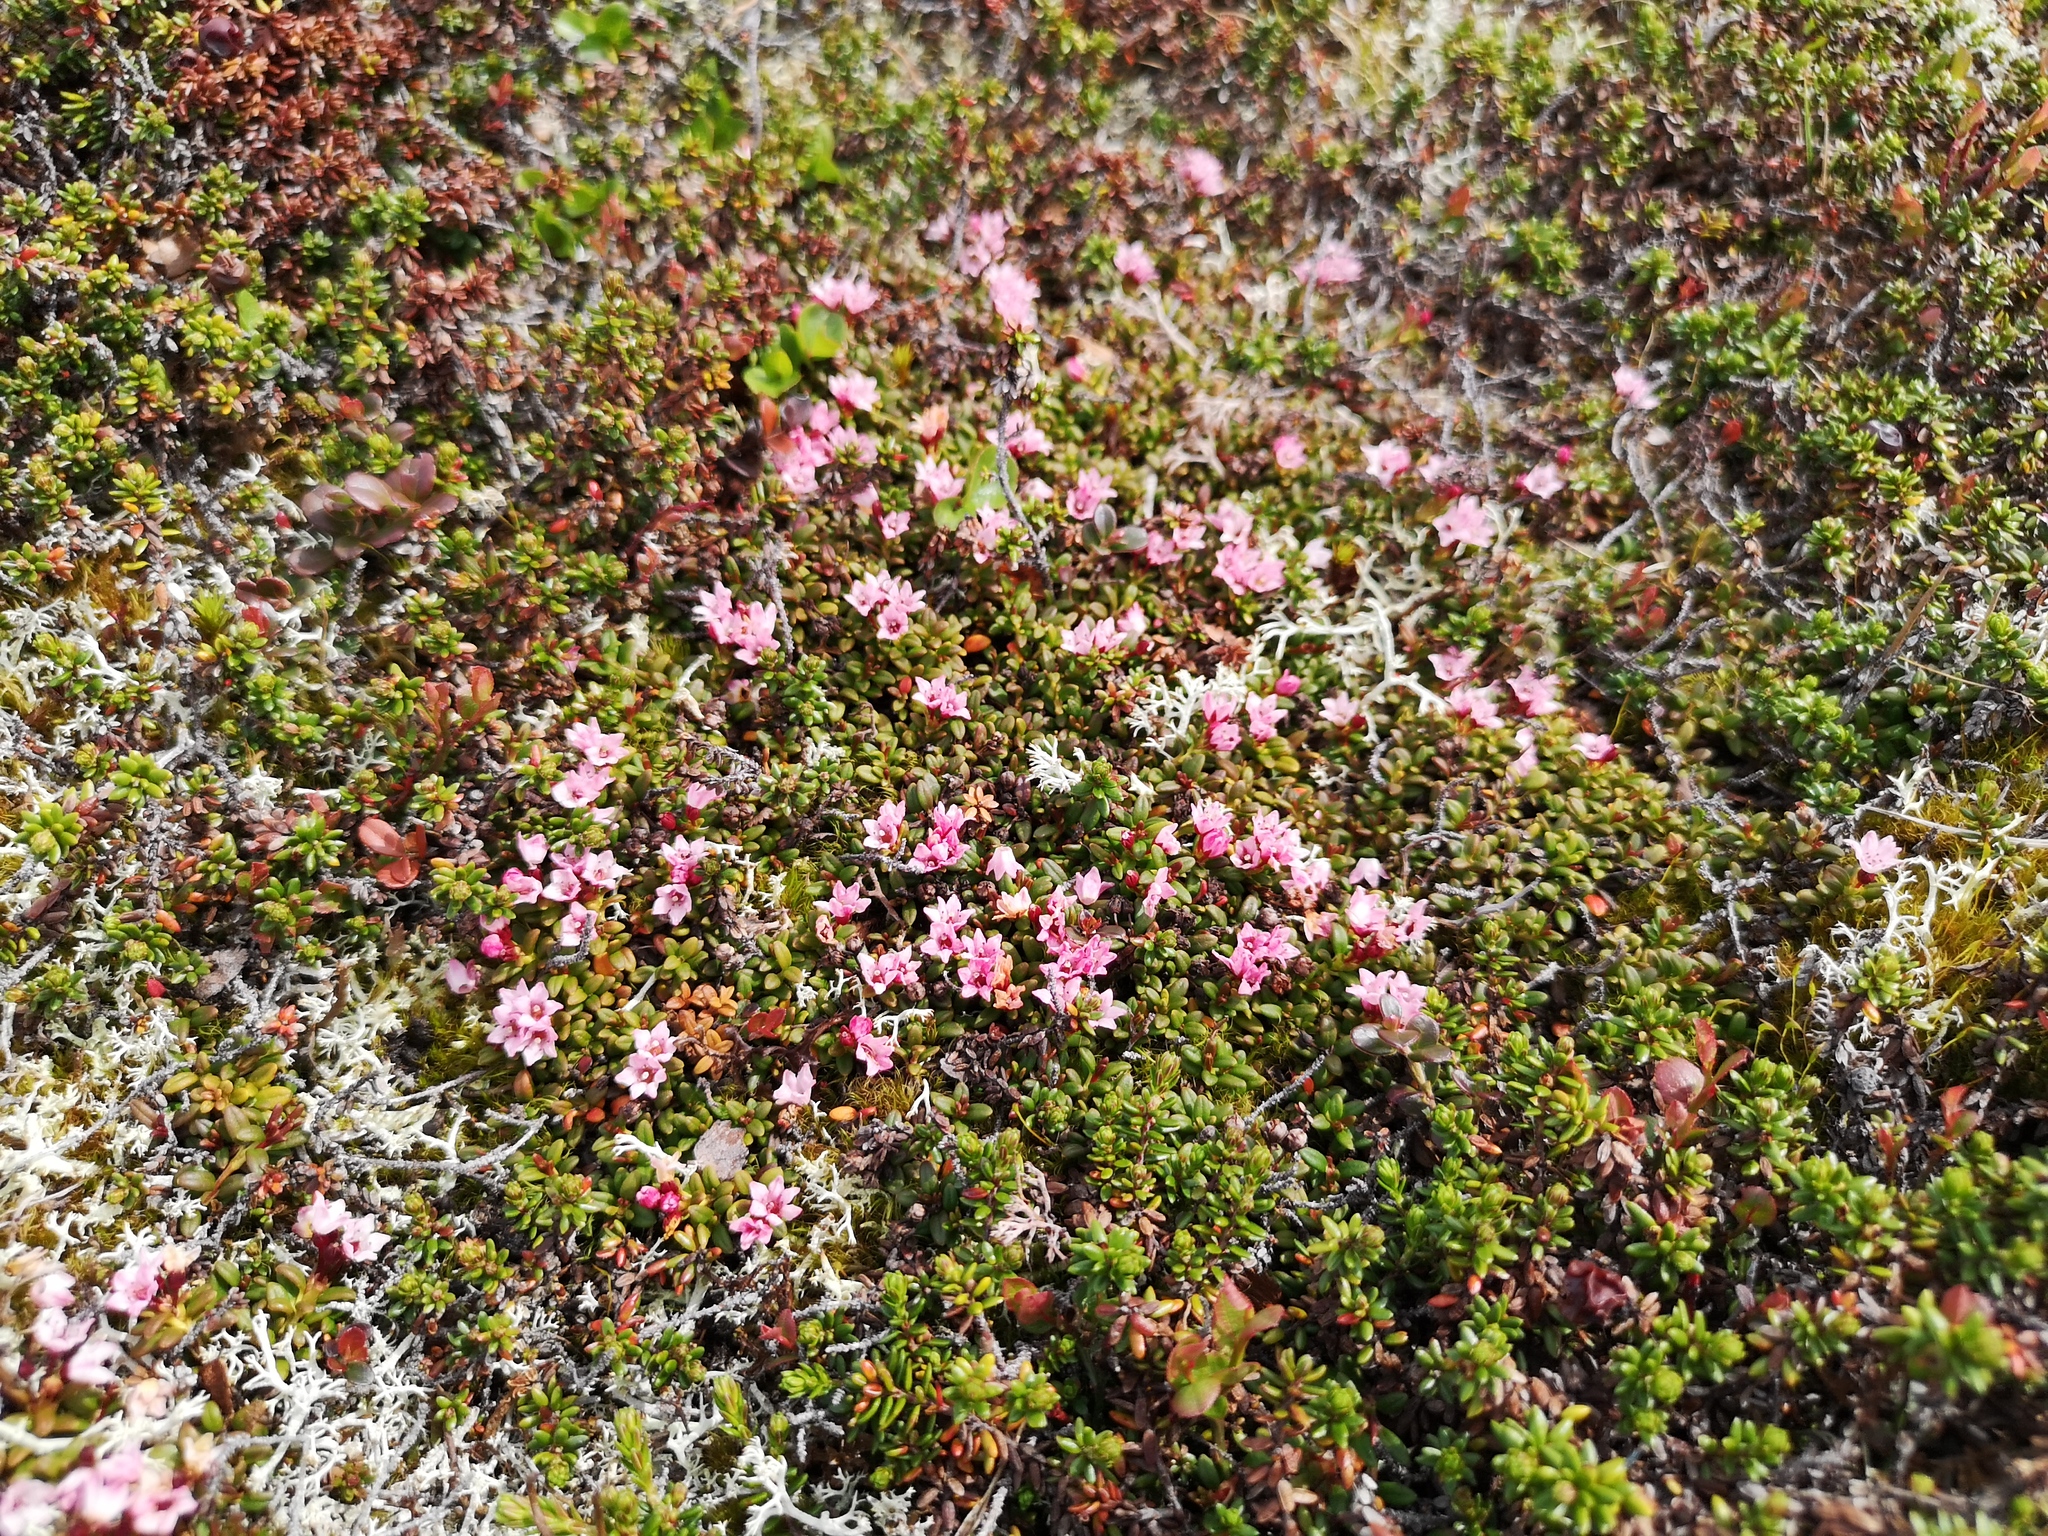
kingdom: Plantae
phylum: Tracheophyta
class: Magnoliopsida
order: Ericales
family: Ericaceae
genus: Kalmia
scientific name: Kalmia procumbens
